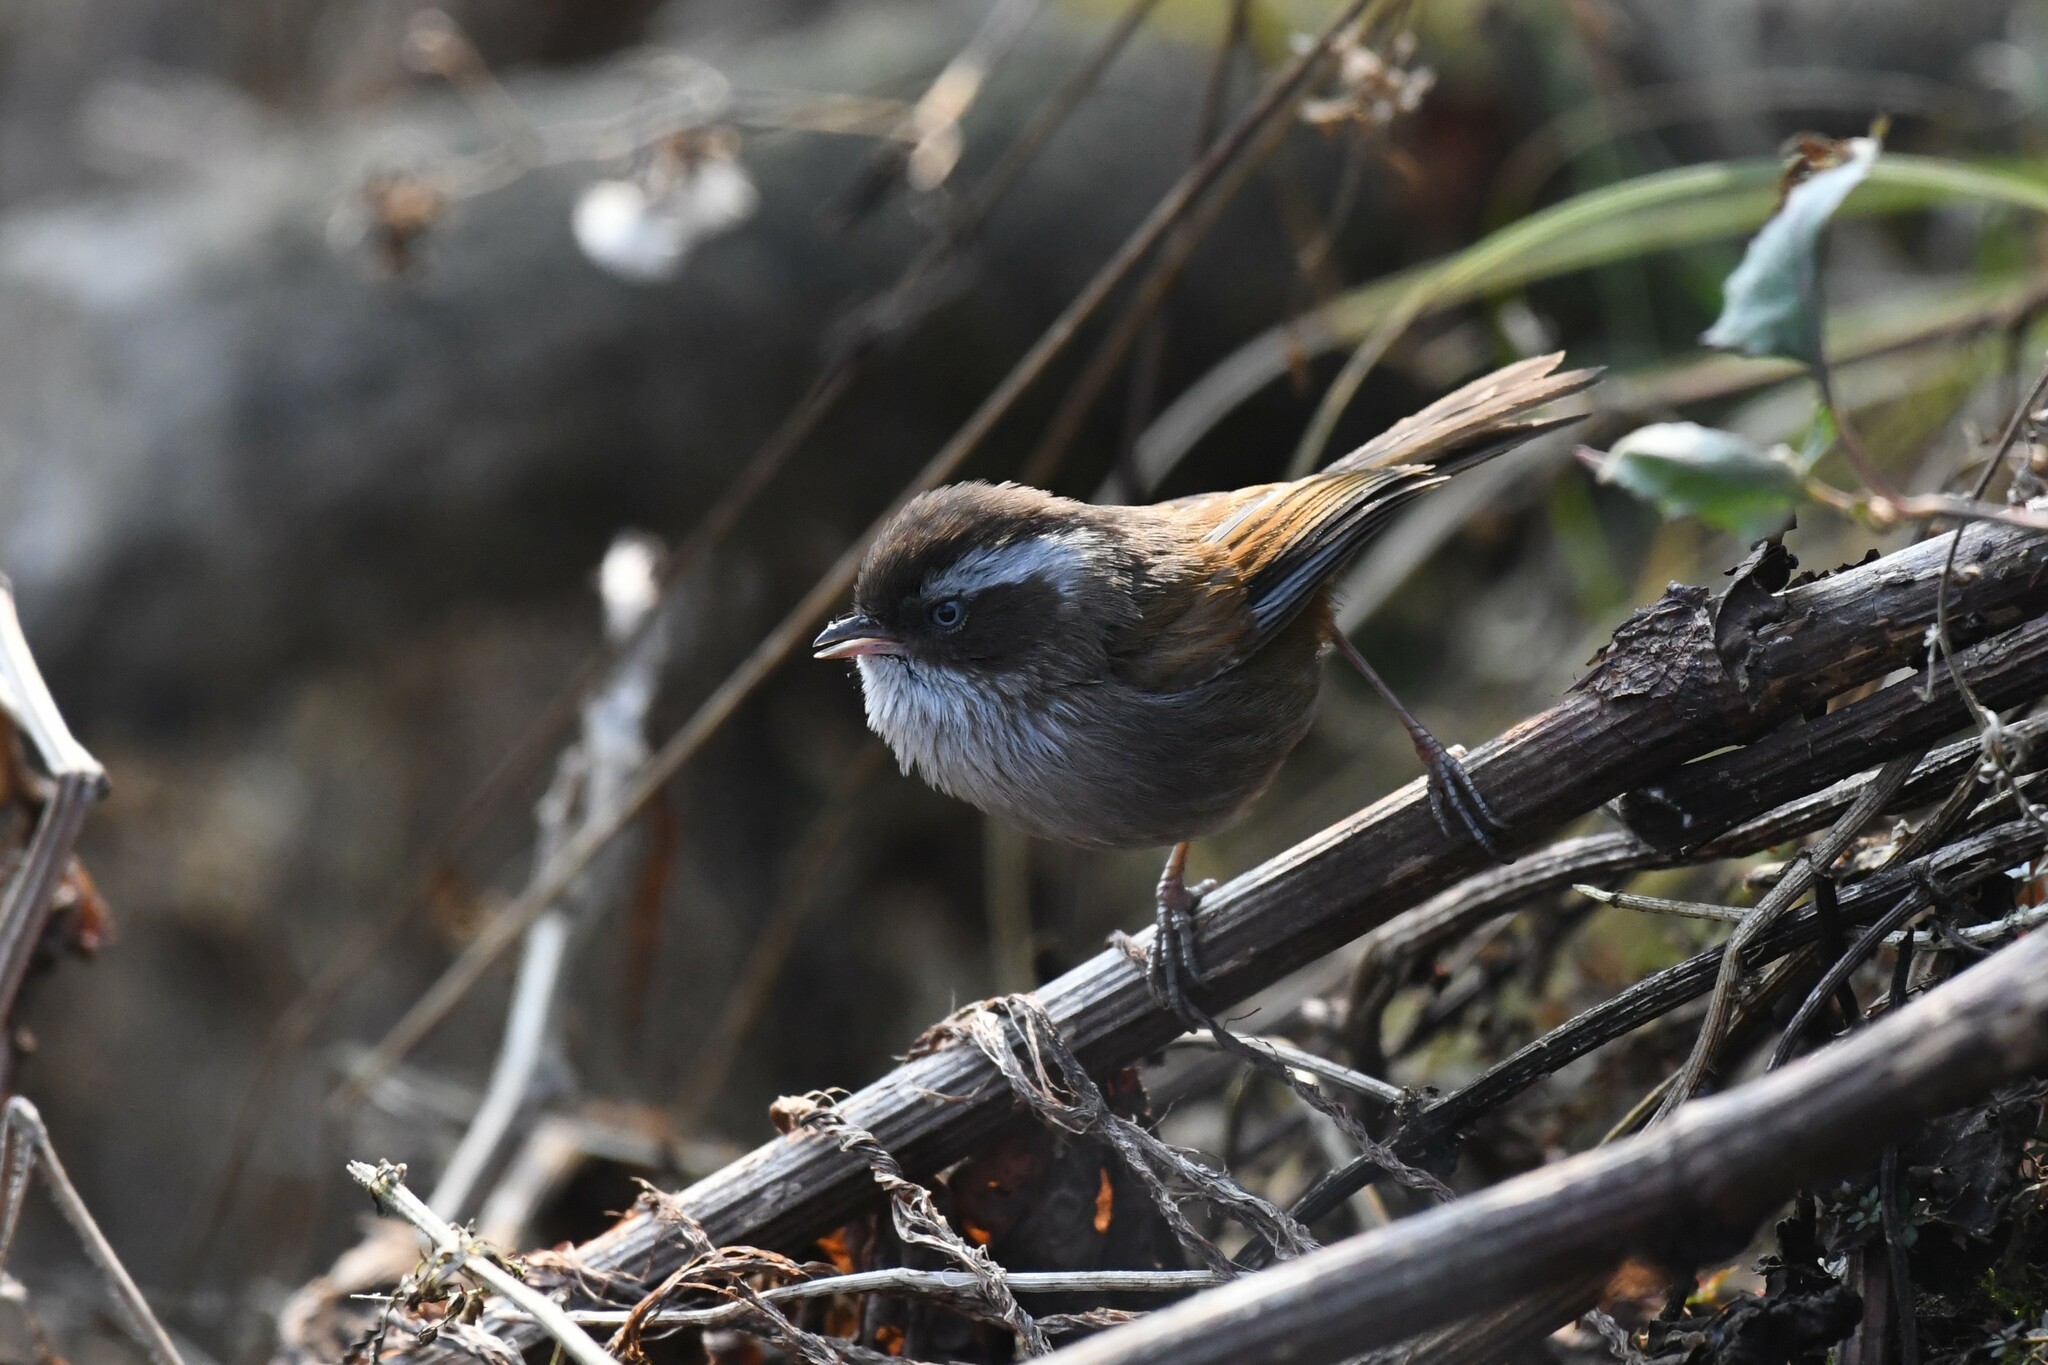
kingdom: Animalia
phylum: Chordata
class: Aves
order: Passeriformes
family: Sylviidae
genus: Fulvetta
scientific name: Fulvetta vinipectus
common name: White-browed fulvetta
